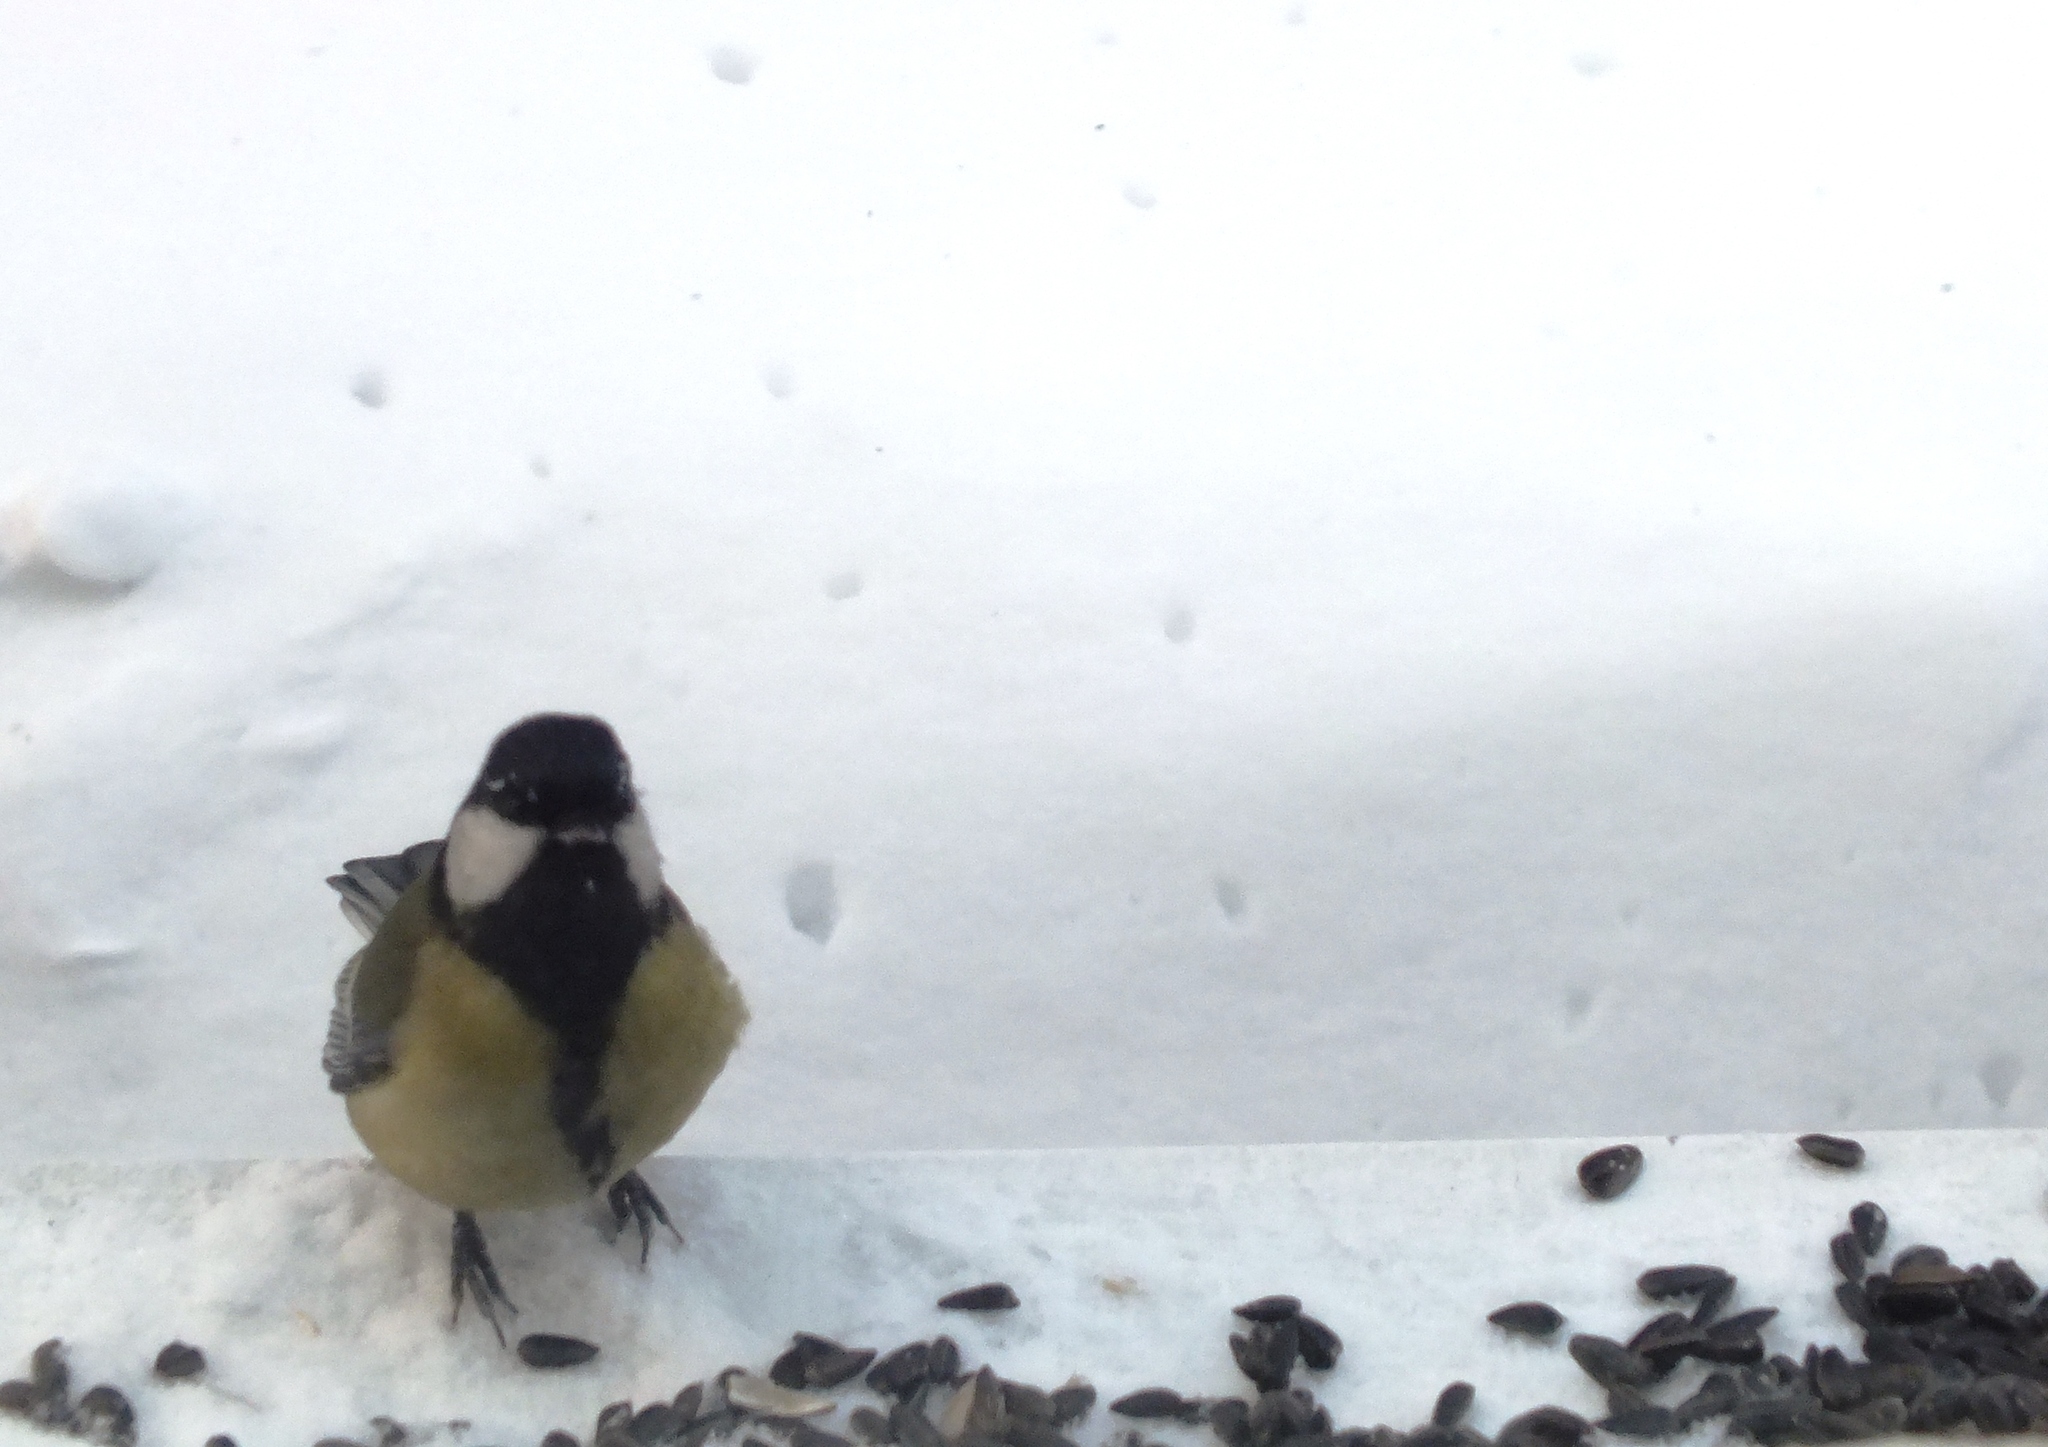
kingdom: Animalia
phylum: Chordata
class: Aves
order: Passeriformes
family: Paridae
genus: Parus
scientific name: Parus major
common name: Great tit
